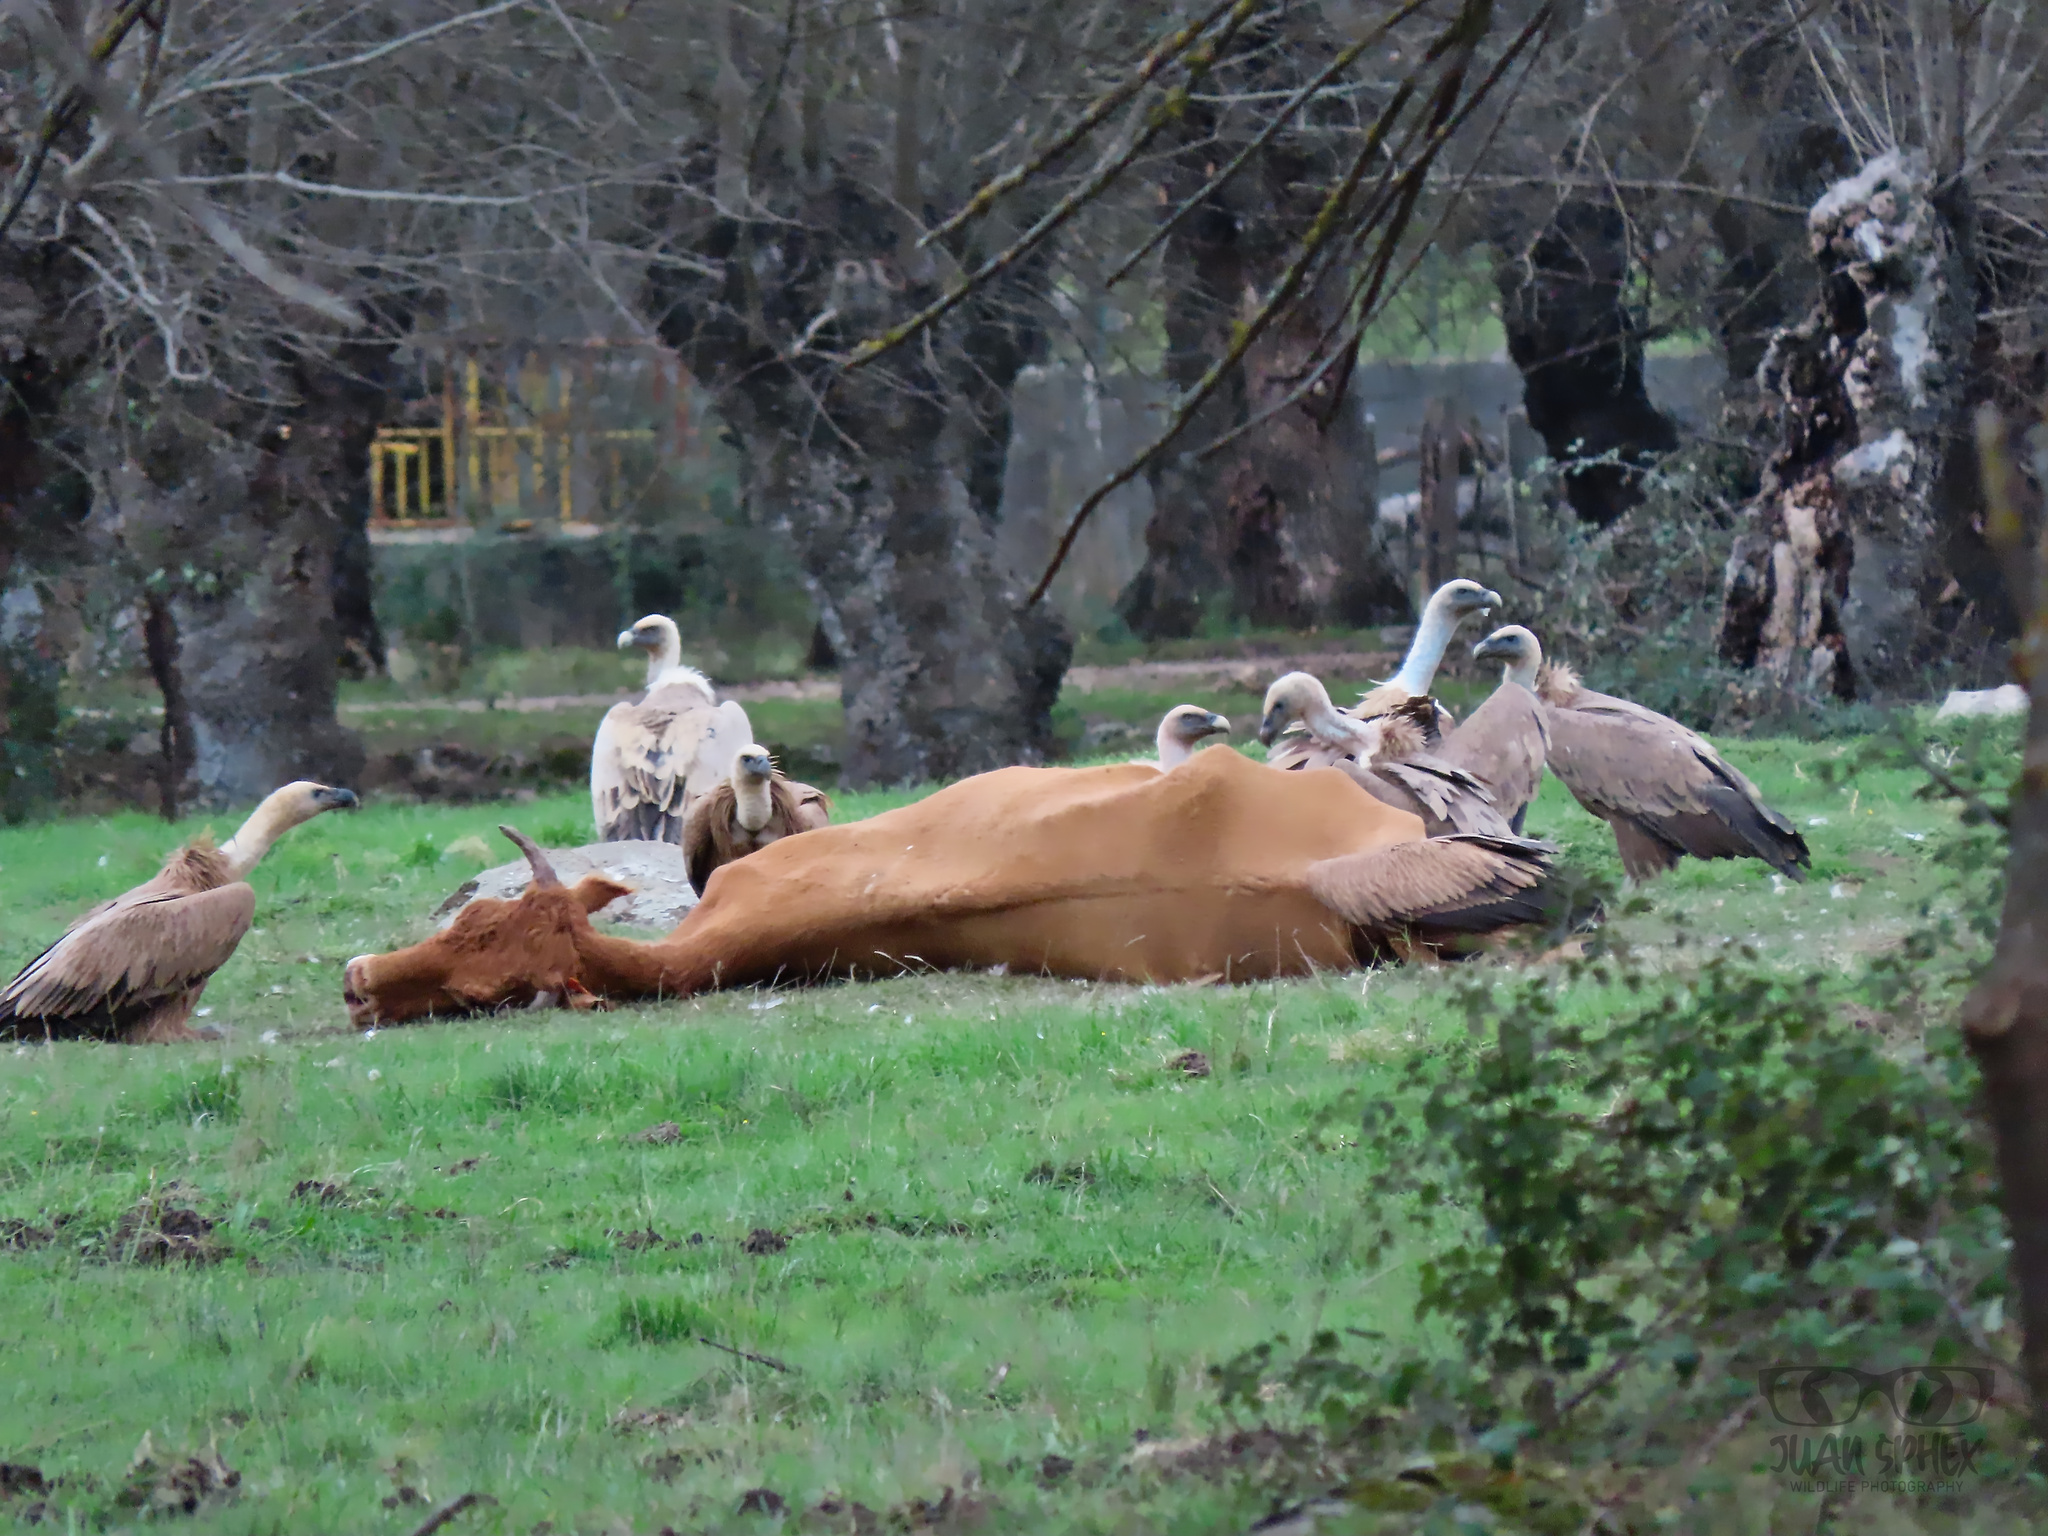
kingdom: Animalia
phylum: Chordata
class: Aves
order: Accipitriformes
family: Accipitridae
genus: Gyps
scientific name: Gyps fulvus
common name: Griffon vulture
